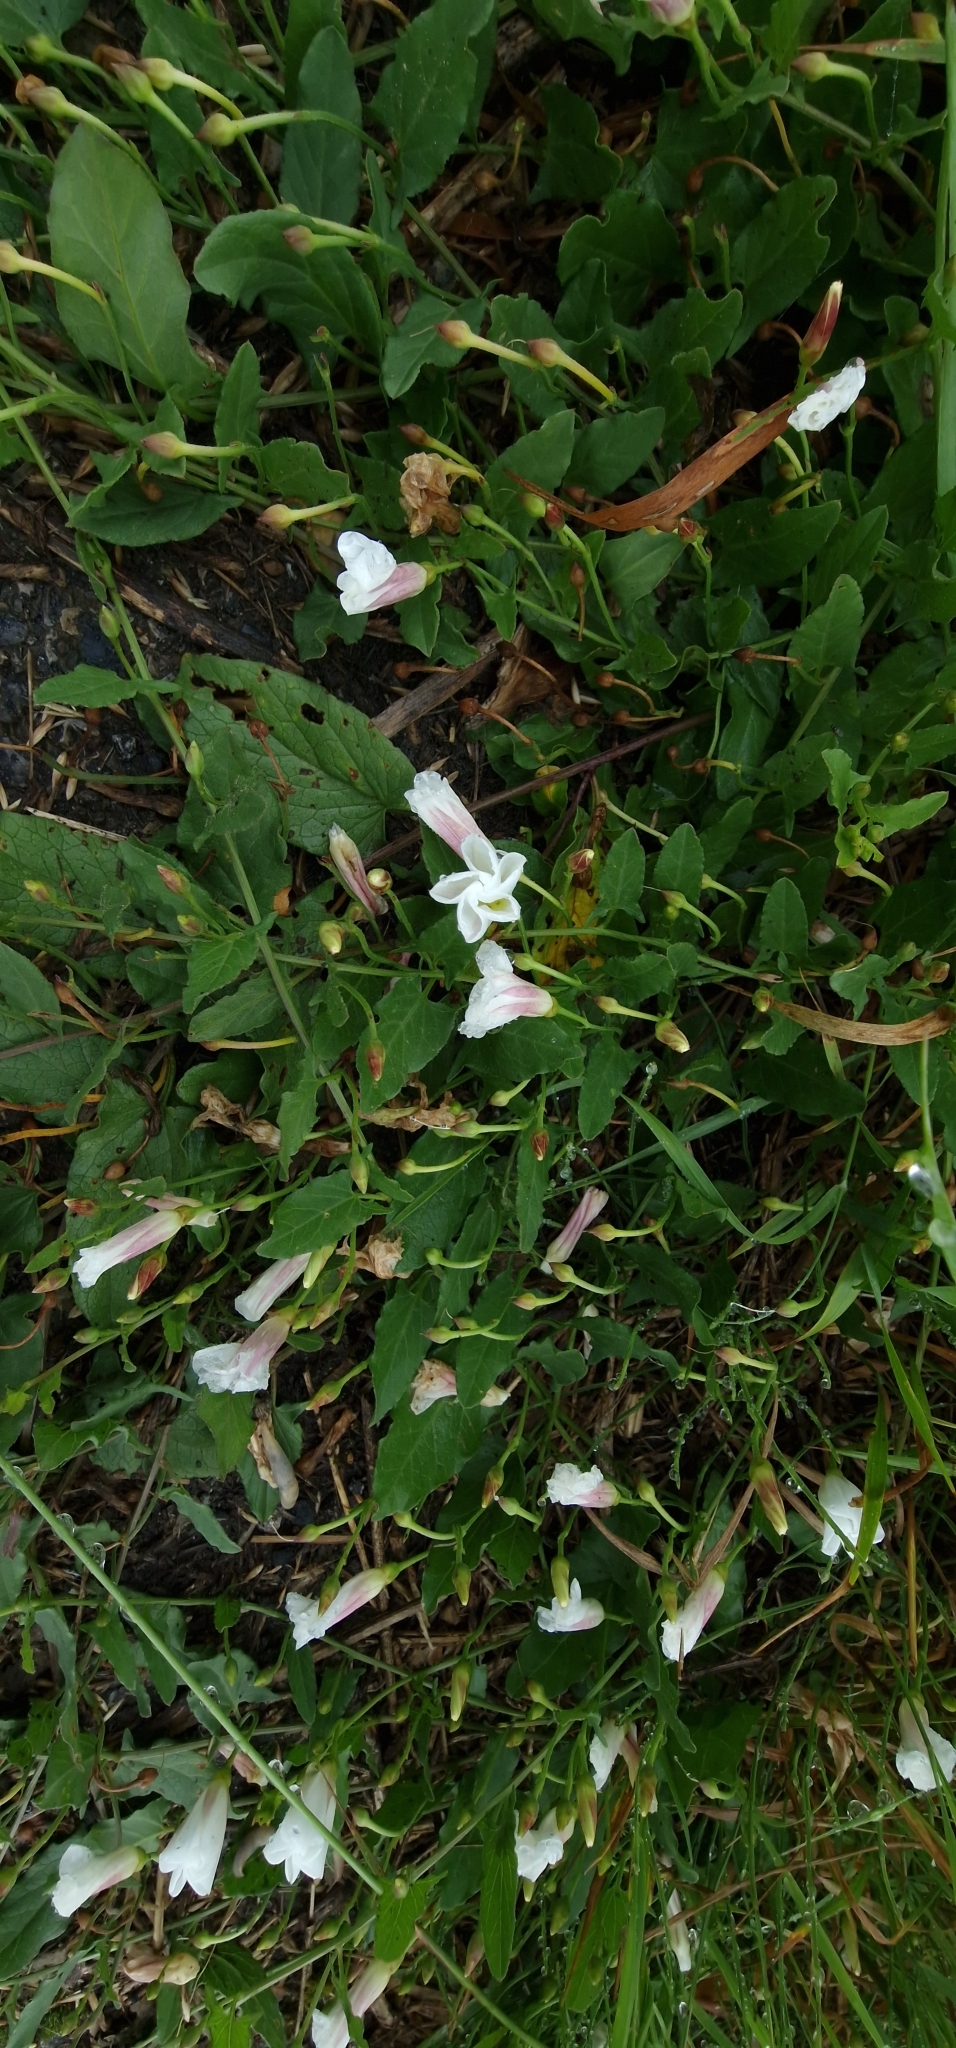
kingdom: Plantae
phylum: Tracheophyta
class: Magnoliopsida
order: Solanales
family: Convolvulaceae
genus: Convolvulus
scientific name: Convolvulus arvensis
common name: Field bindweed
